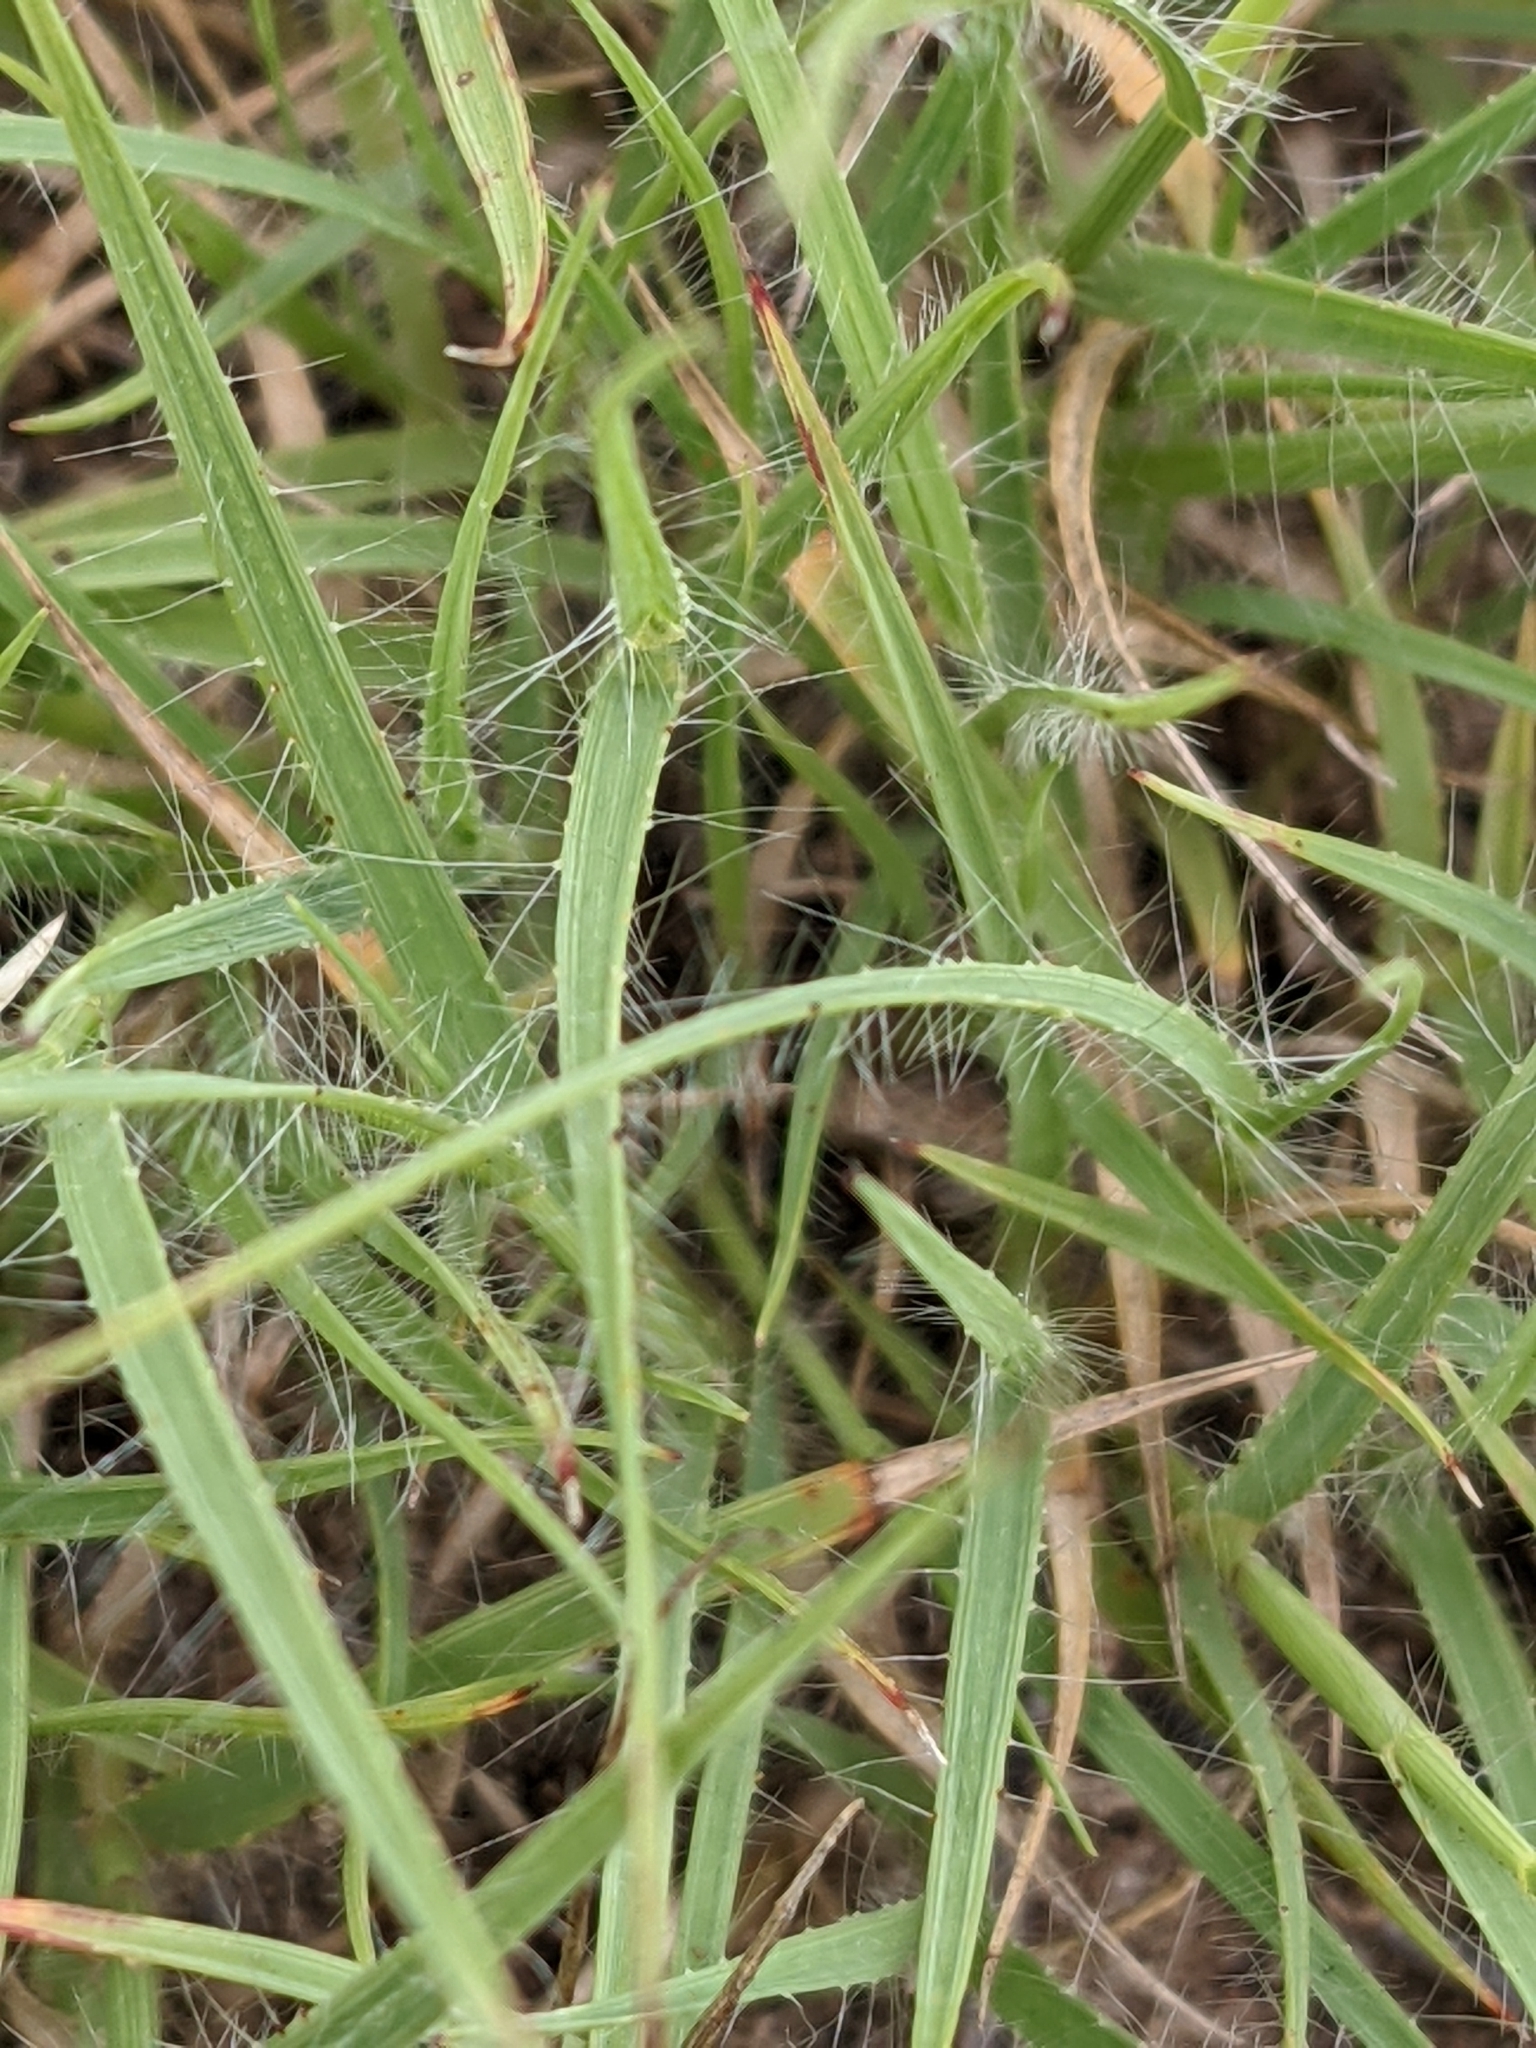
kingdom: Plantae
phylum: Tracheophyta
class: Liliopsida
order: Poales
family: Poaceae
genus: Bouteloua
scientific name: Bouteloua hirsuta
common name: Hairy grama
